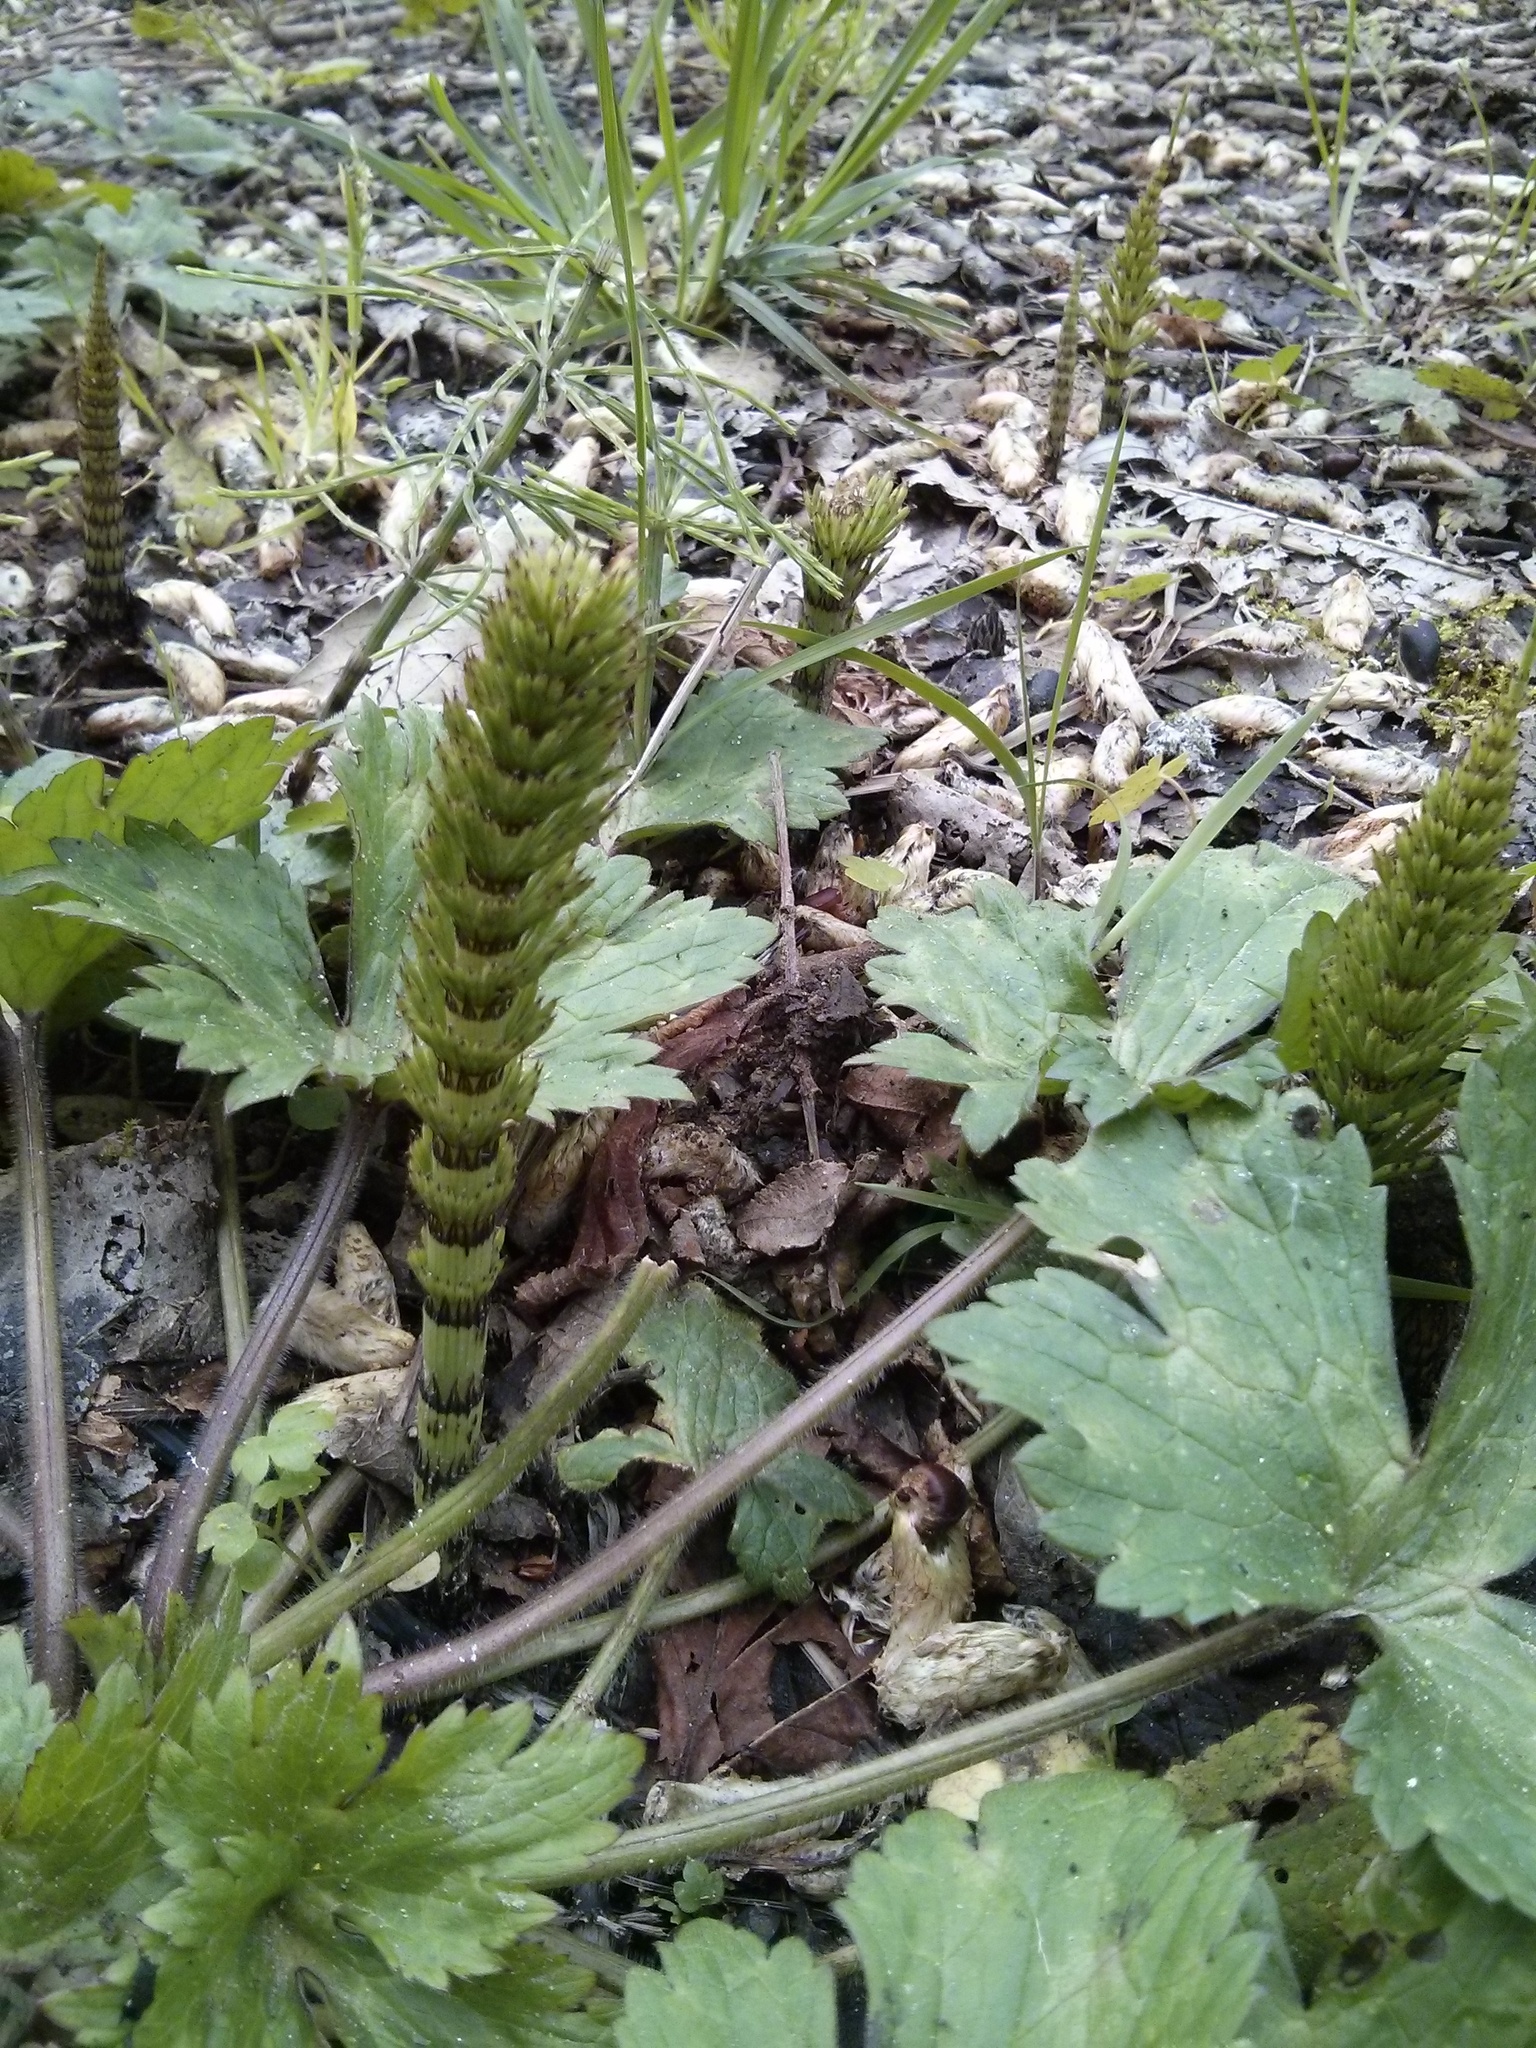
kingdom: Plantae
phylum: Tracheophyta
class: Polypodiopsida
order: Equisetales
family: Equisetaceae
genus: Equisetum
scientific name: Equisetum telmateia
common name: Great horsetail
